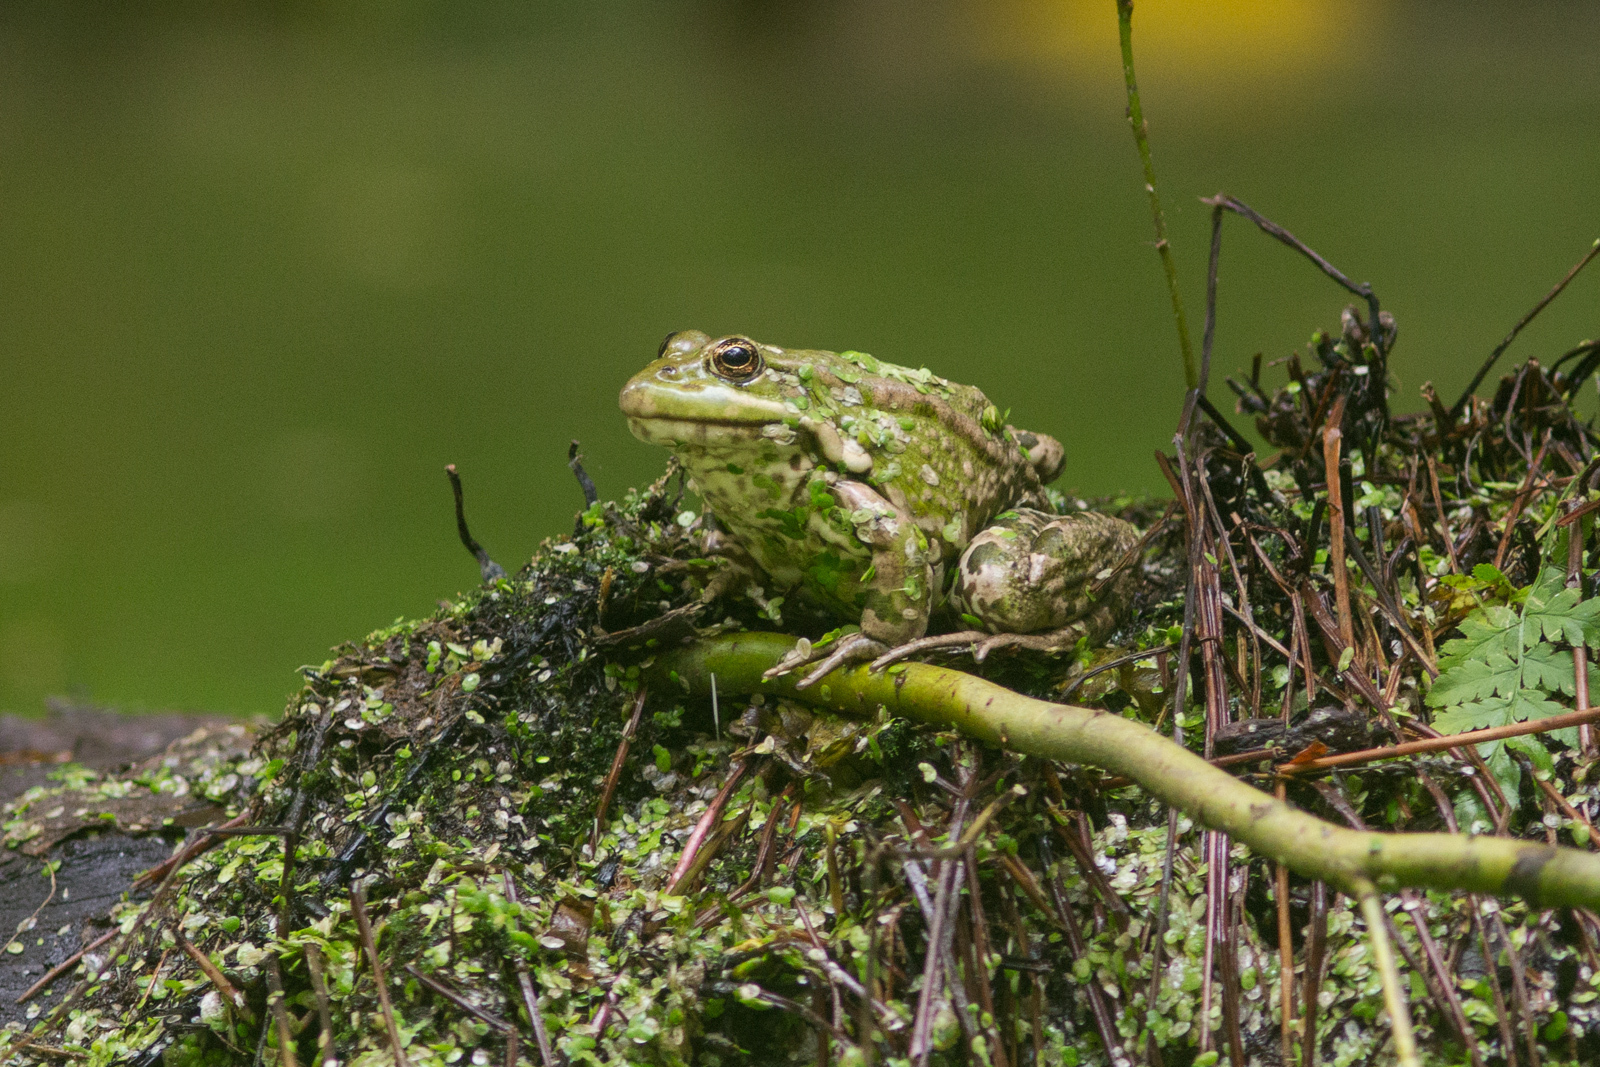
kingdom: Animalia
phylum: Chordata
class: Amphibia
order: Anura
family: Ranidae
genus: Pelophylax
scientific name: Pelophylax ridibundus
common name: Marsh frog
